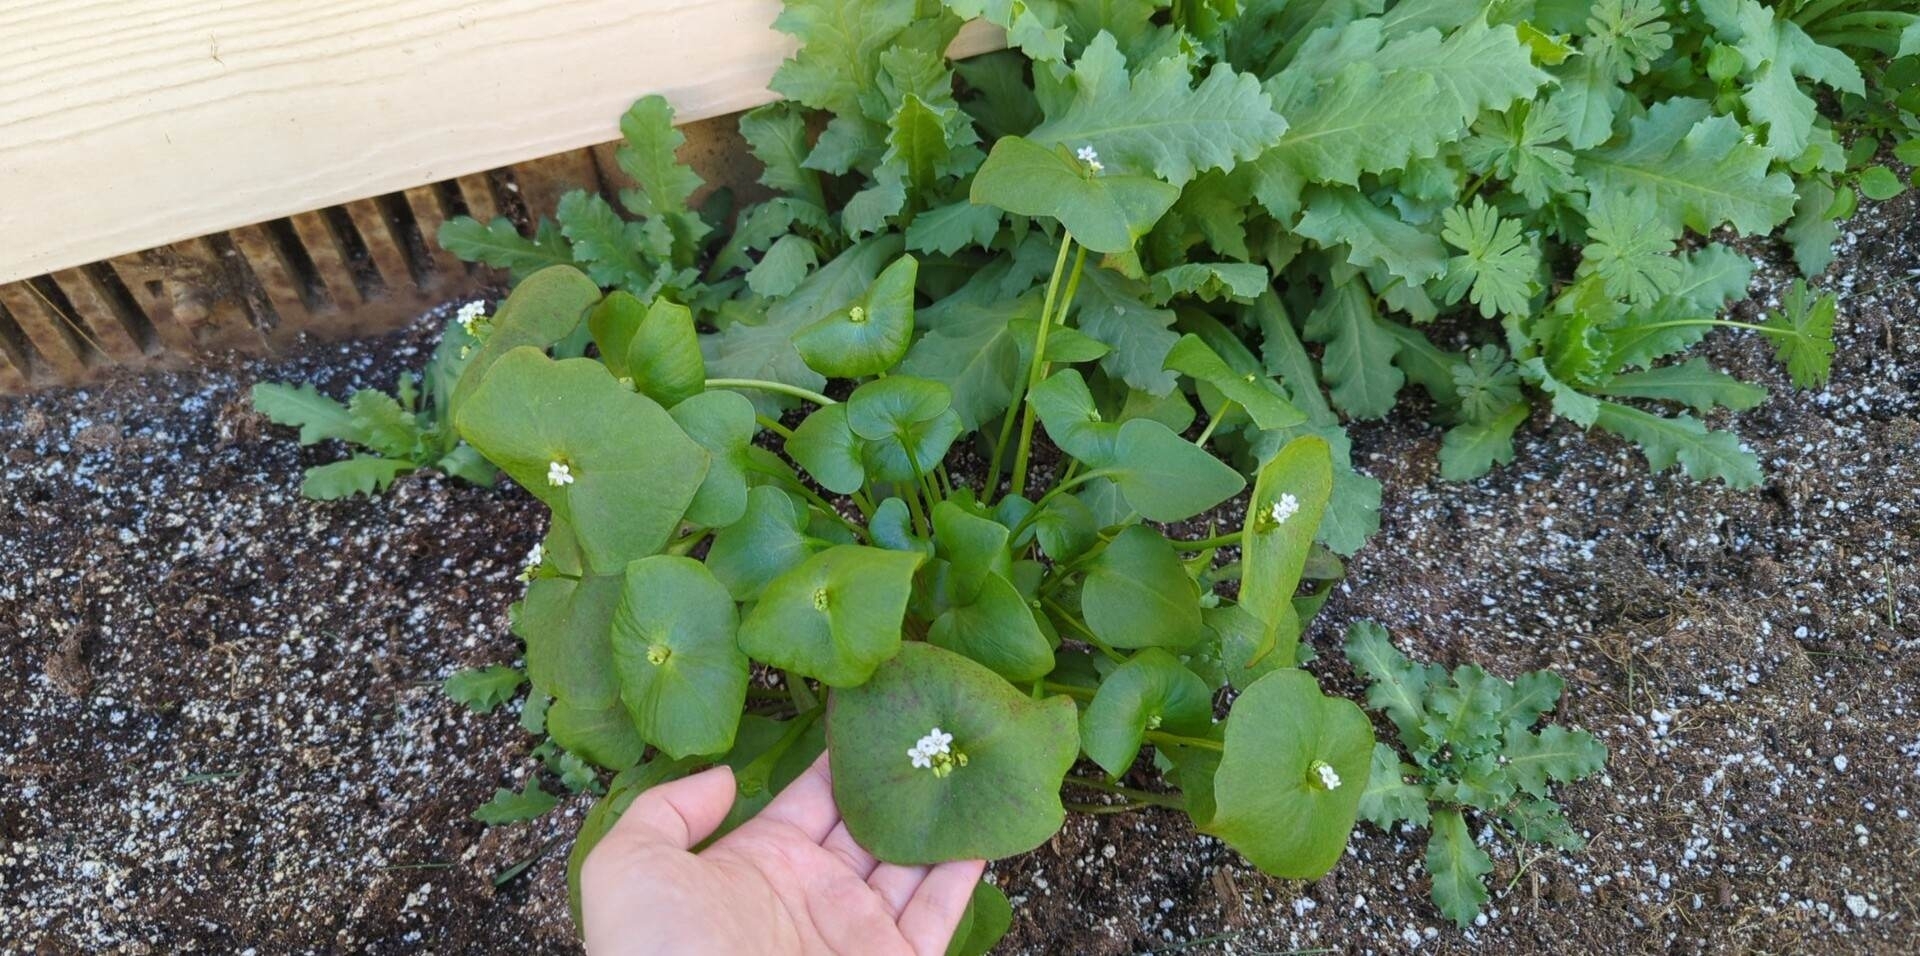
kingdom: Plantae
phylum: Tracheophyta
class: Magnoliopsida
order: Caryophyllales
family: Montiaceae
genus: Claytonia
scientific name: Claytonia perfoliata
